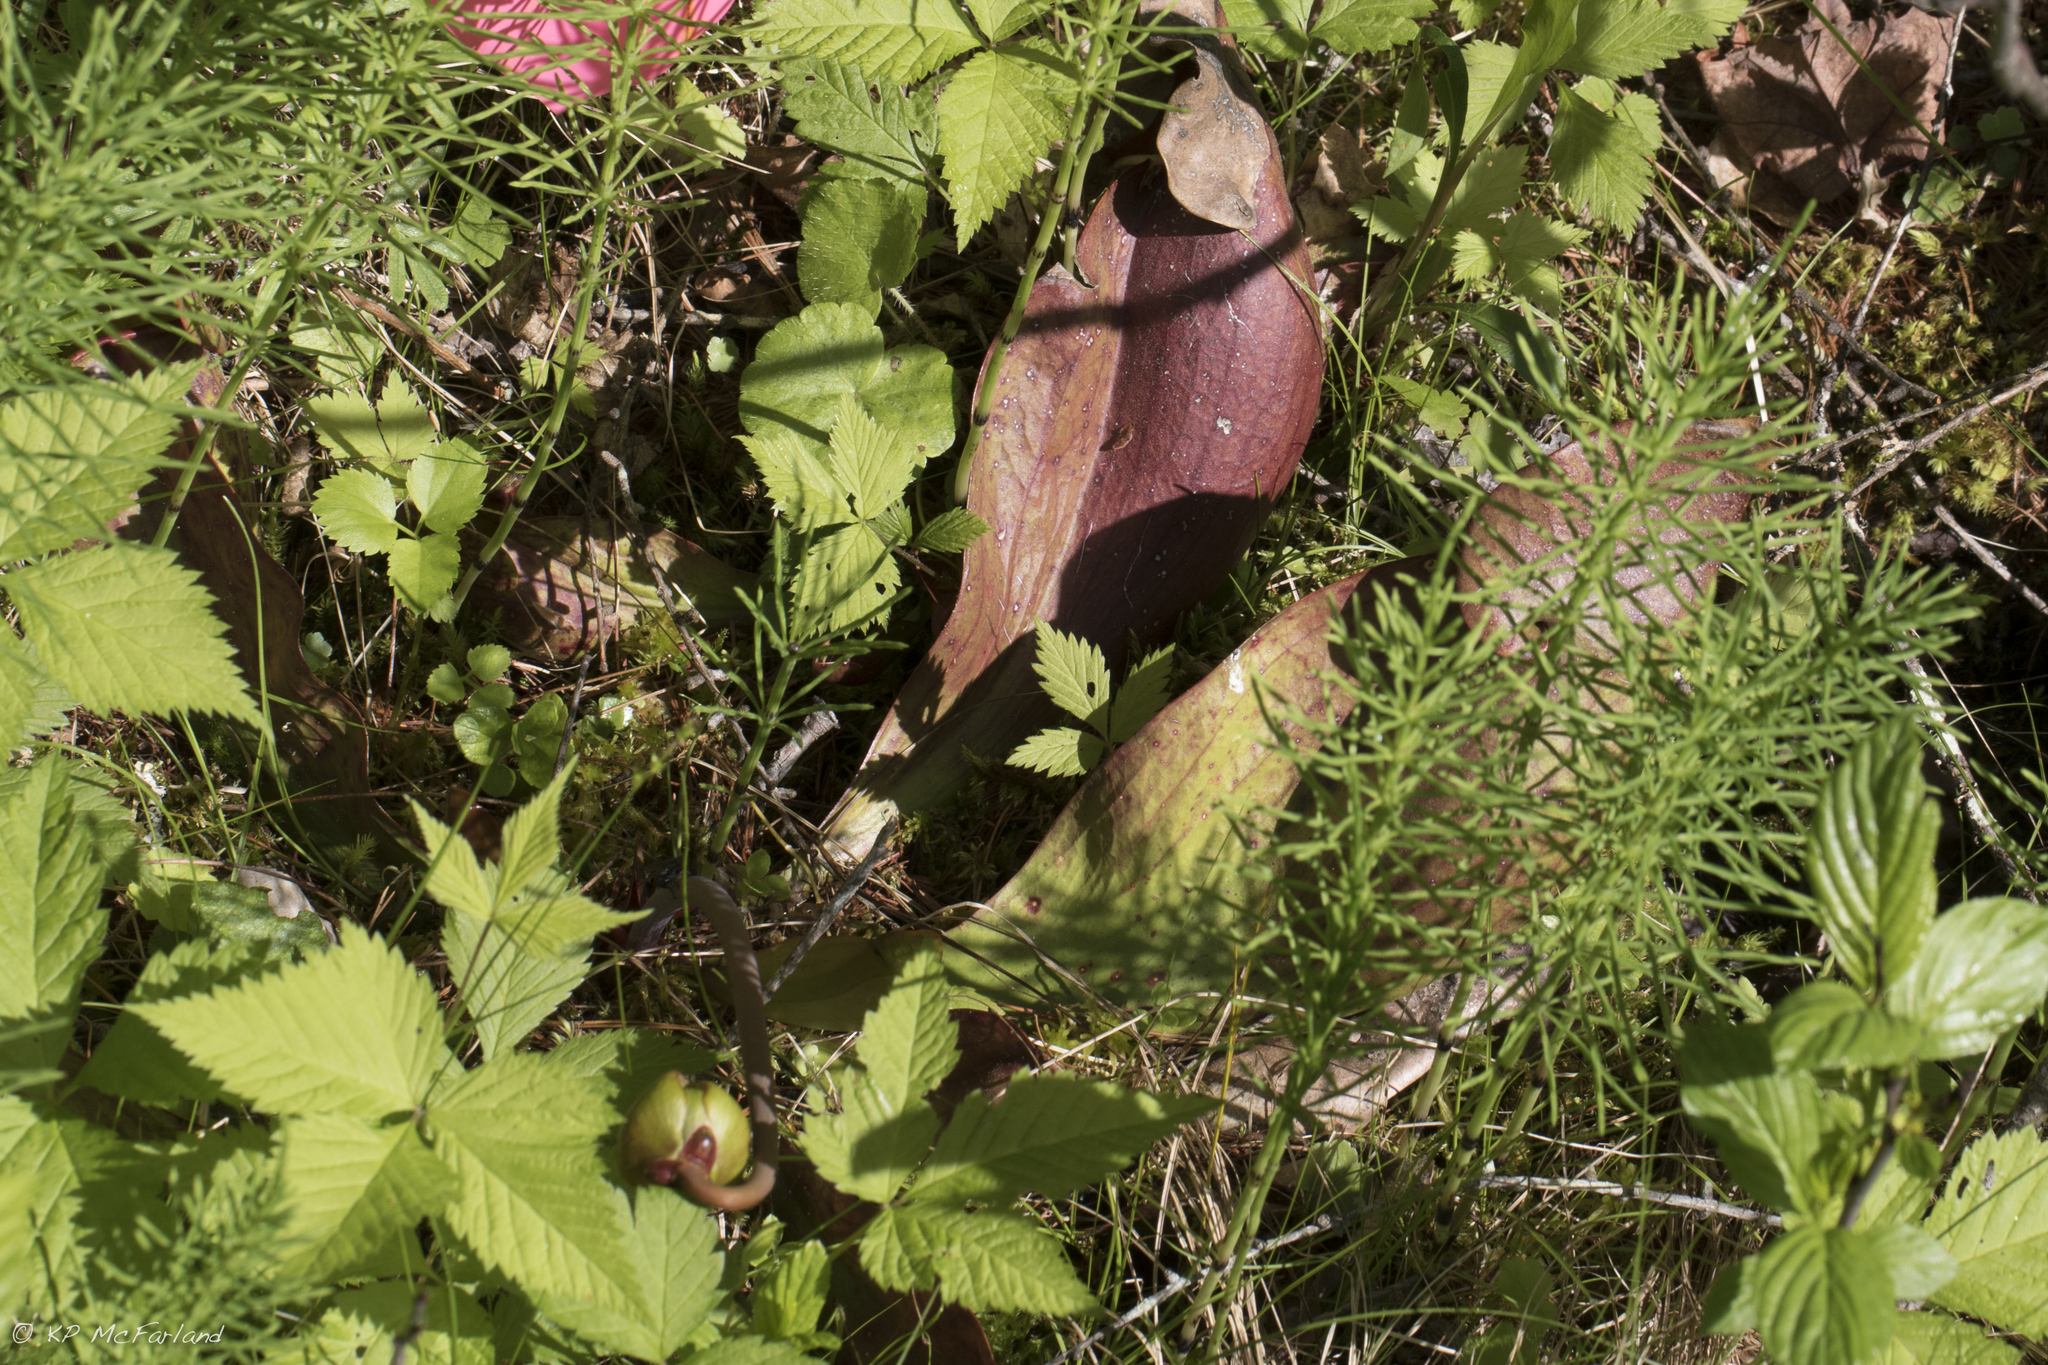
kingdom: Plantae
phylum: Tracheophyta
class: Magnoliopsida
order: Ericales
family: Sarraceniaceae
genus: Sarracenia
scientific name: Sarracenia purpurea
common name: Pitcherplant
